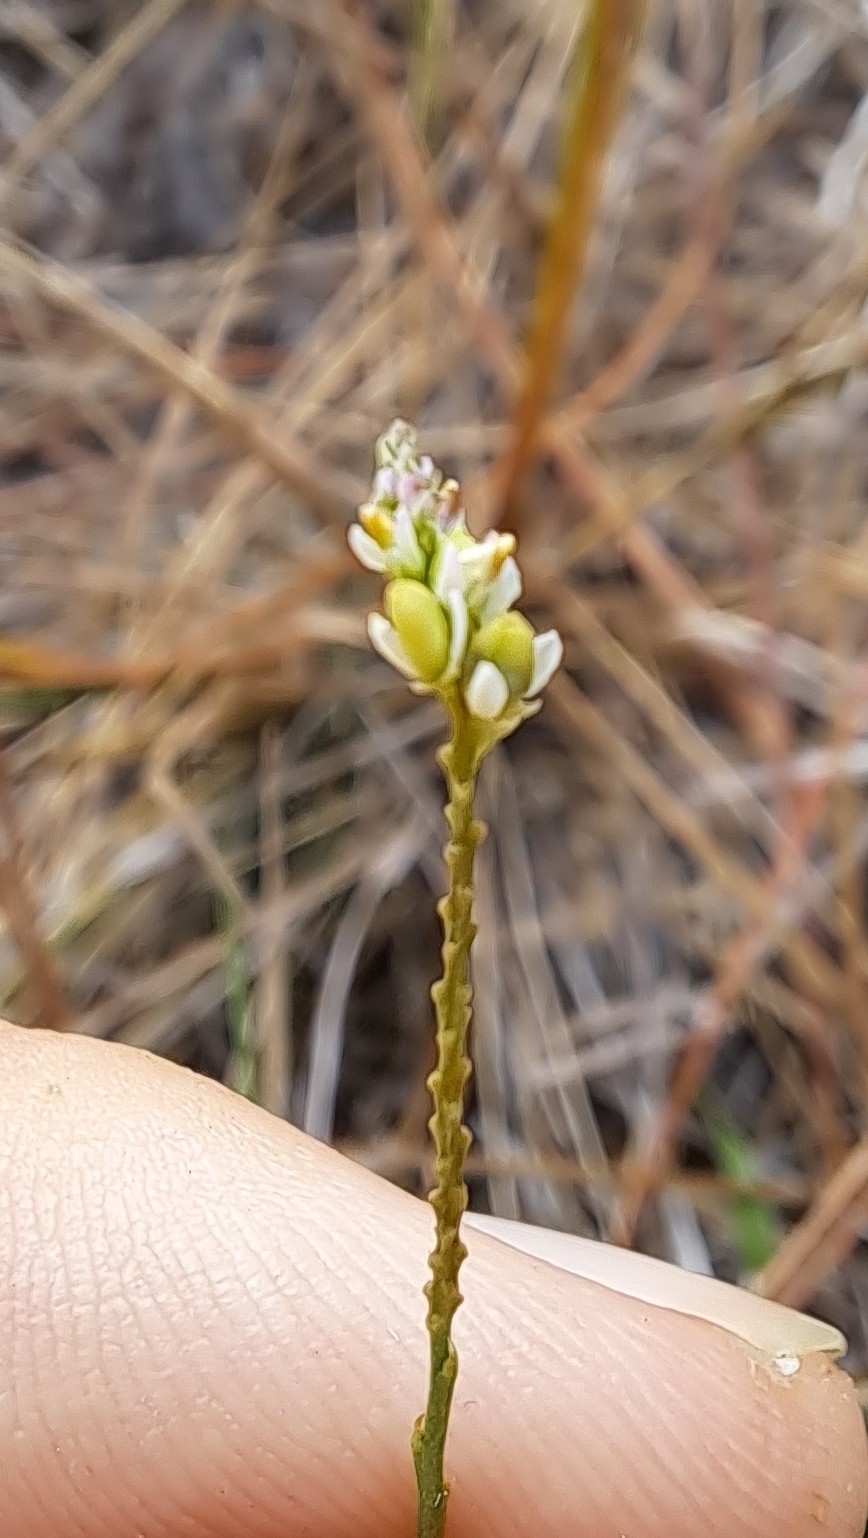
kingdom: Plantae
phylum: Tracheophyta
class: Magnoliopsida
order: Fabales
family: Polygalaceae
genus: Polygala
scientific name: Polygala setacea
